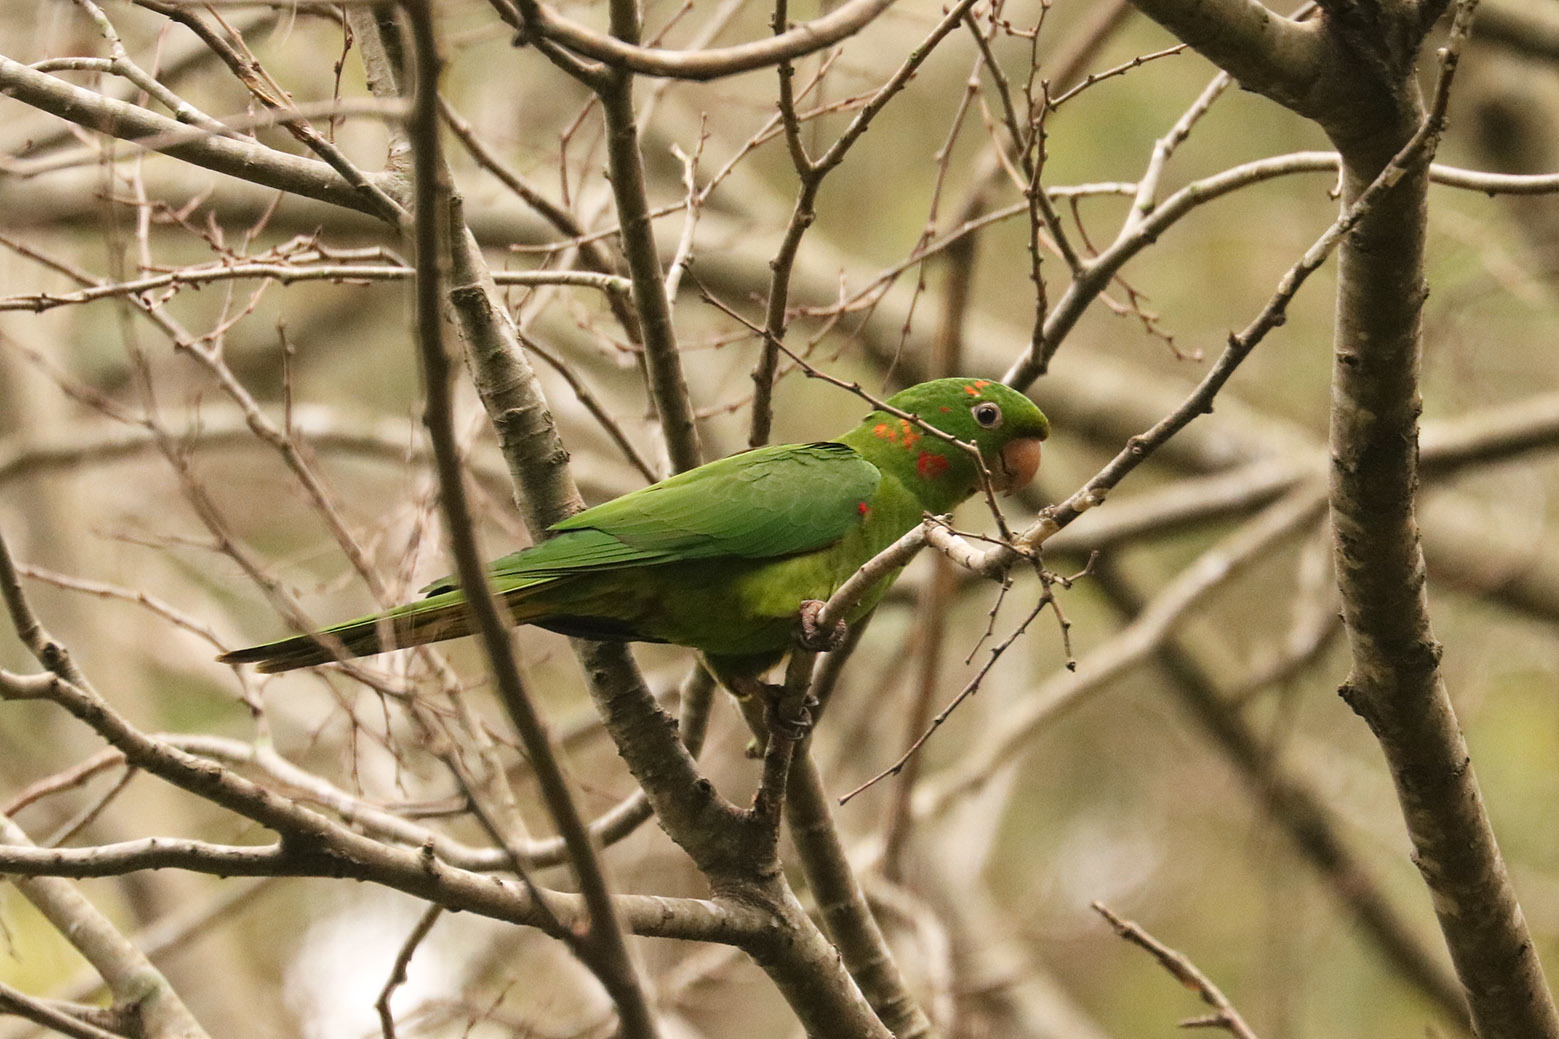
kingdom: Animalia
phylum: Chordata
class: Aves
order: Psittaciformes
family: Psittacidae
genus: Aratinga
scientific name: Aratinga leucophthalma
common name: White-eyed parakeet
